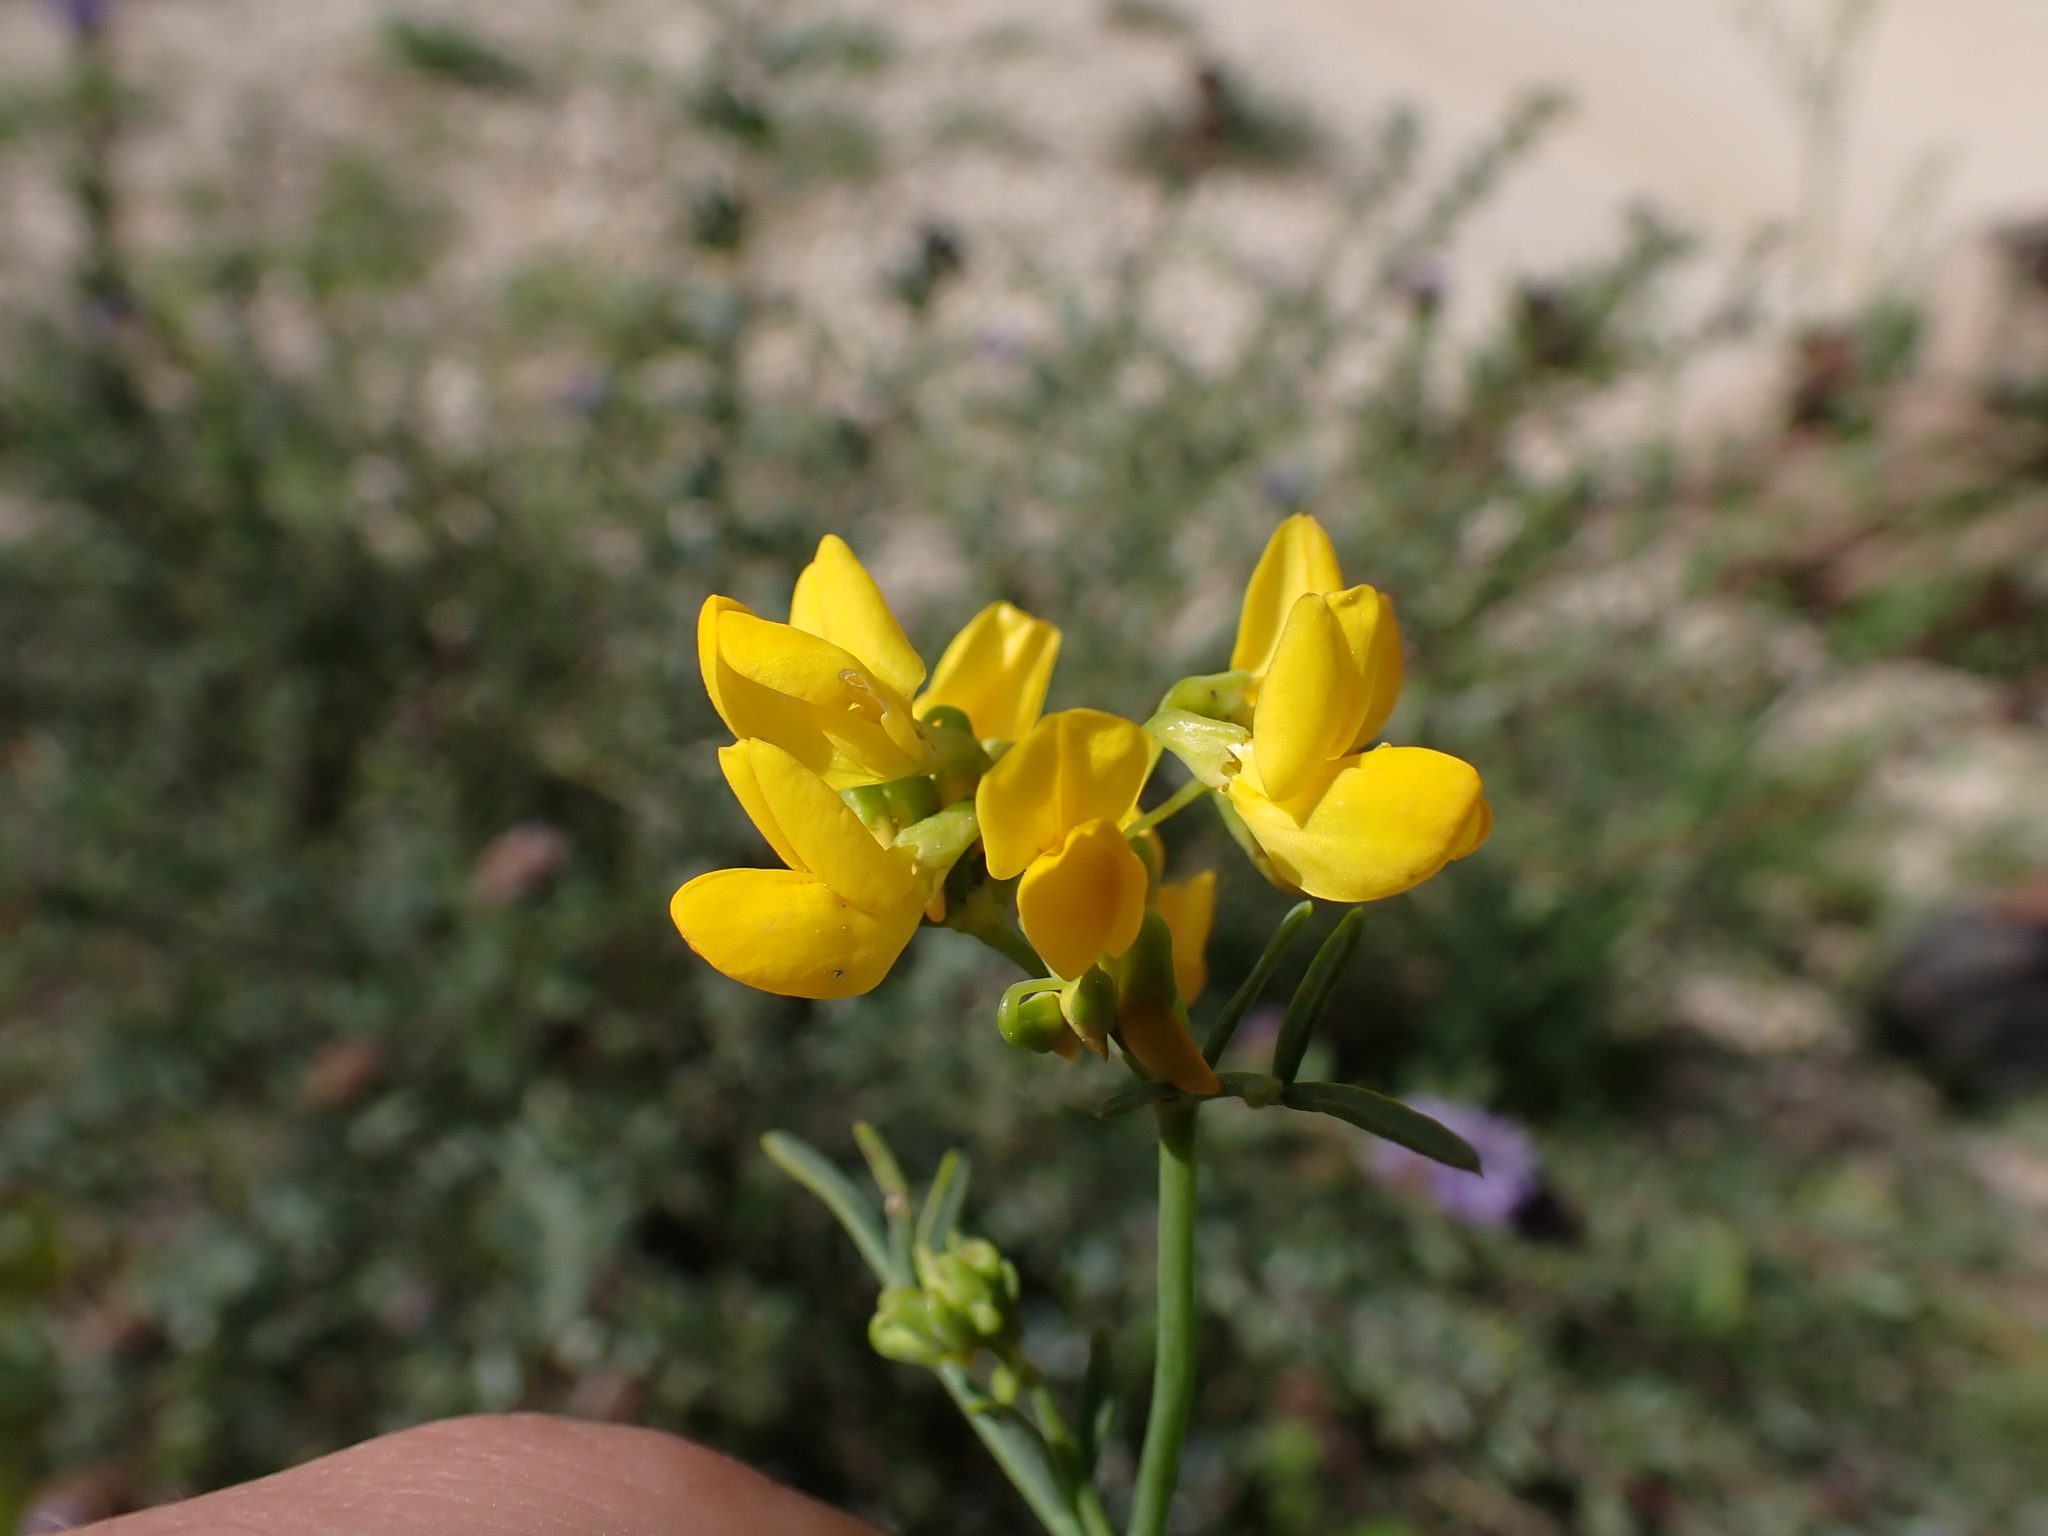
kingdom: Plantae
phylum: Tracheophyta
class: Magnoliopsida
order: Fabales
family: Fabaceae
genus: Coronilla
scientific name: Coronilla juncea
